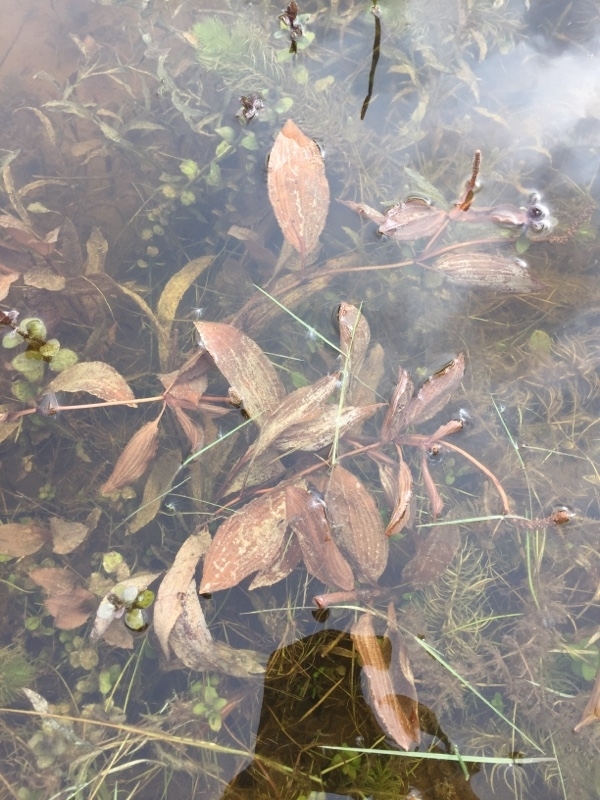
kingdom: Plantae
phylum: Tracheophyta
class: Liliopsida
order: Alismatales
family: Potamogetonaceae
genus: Potamogeton
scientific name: Potamogeton coloratus
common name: Fen pondweed
